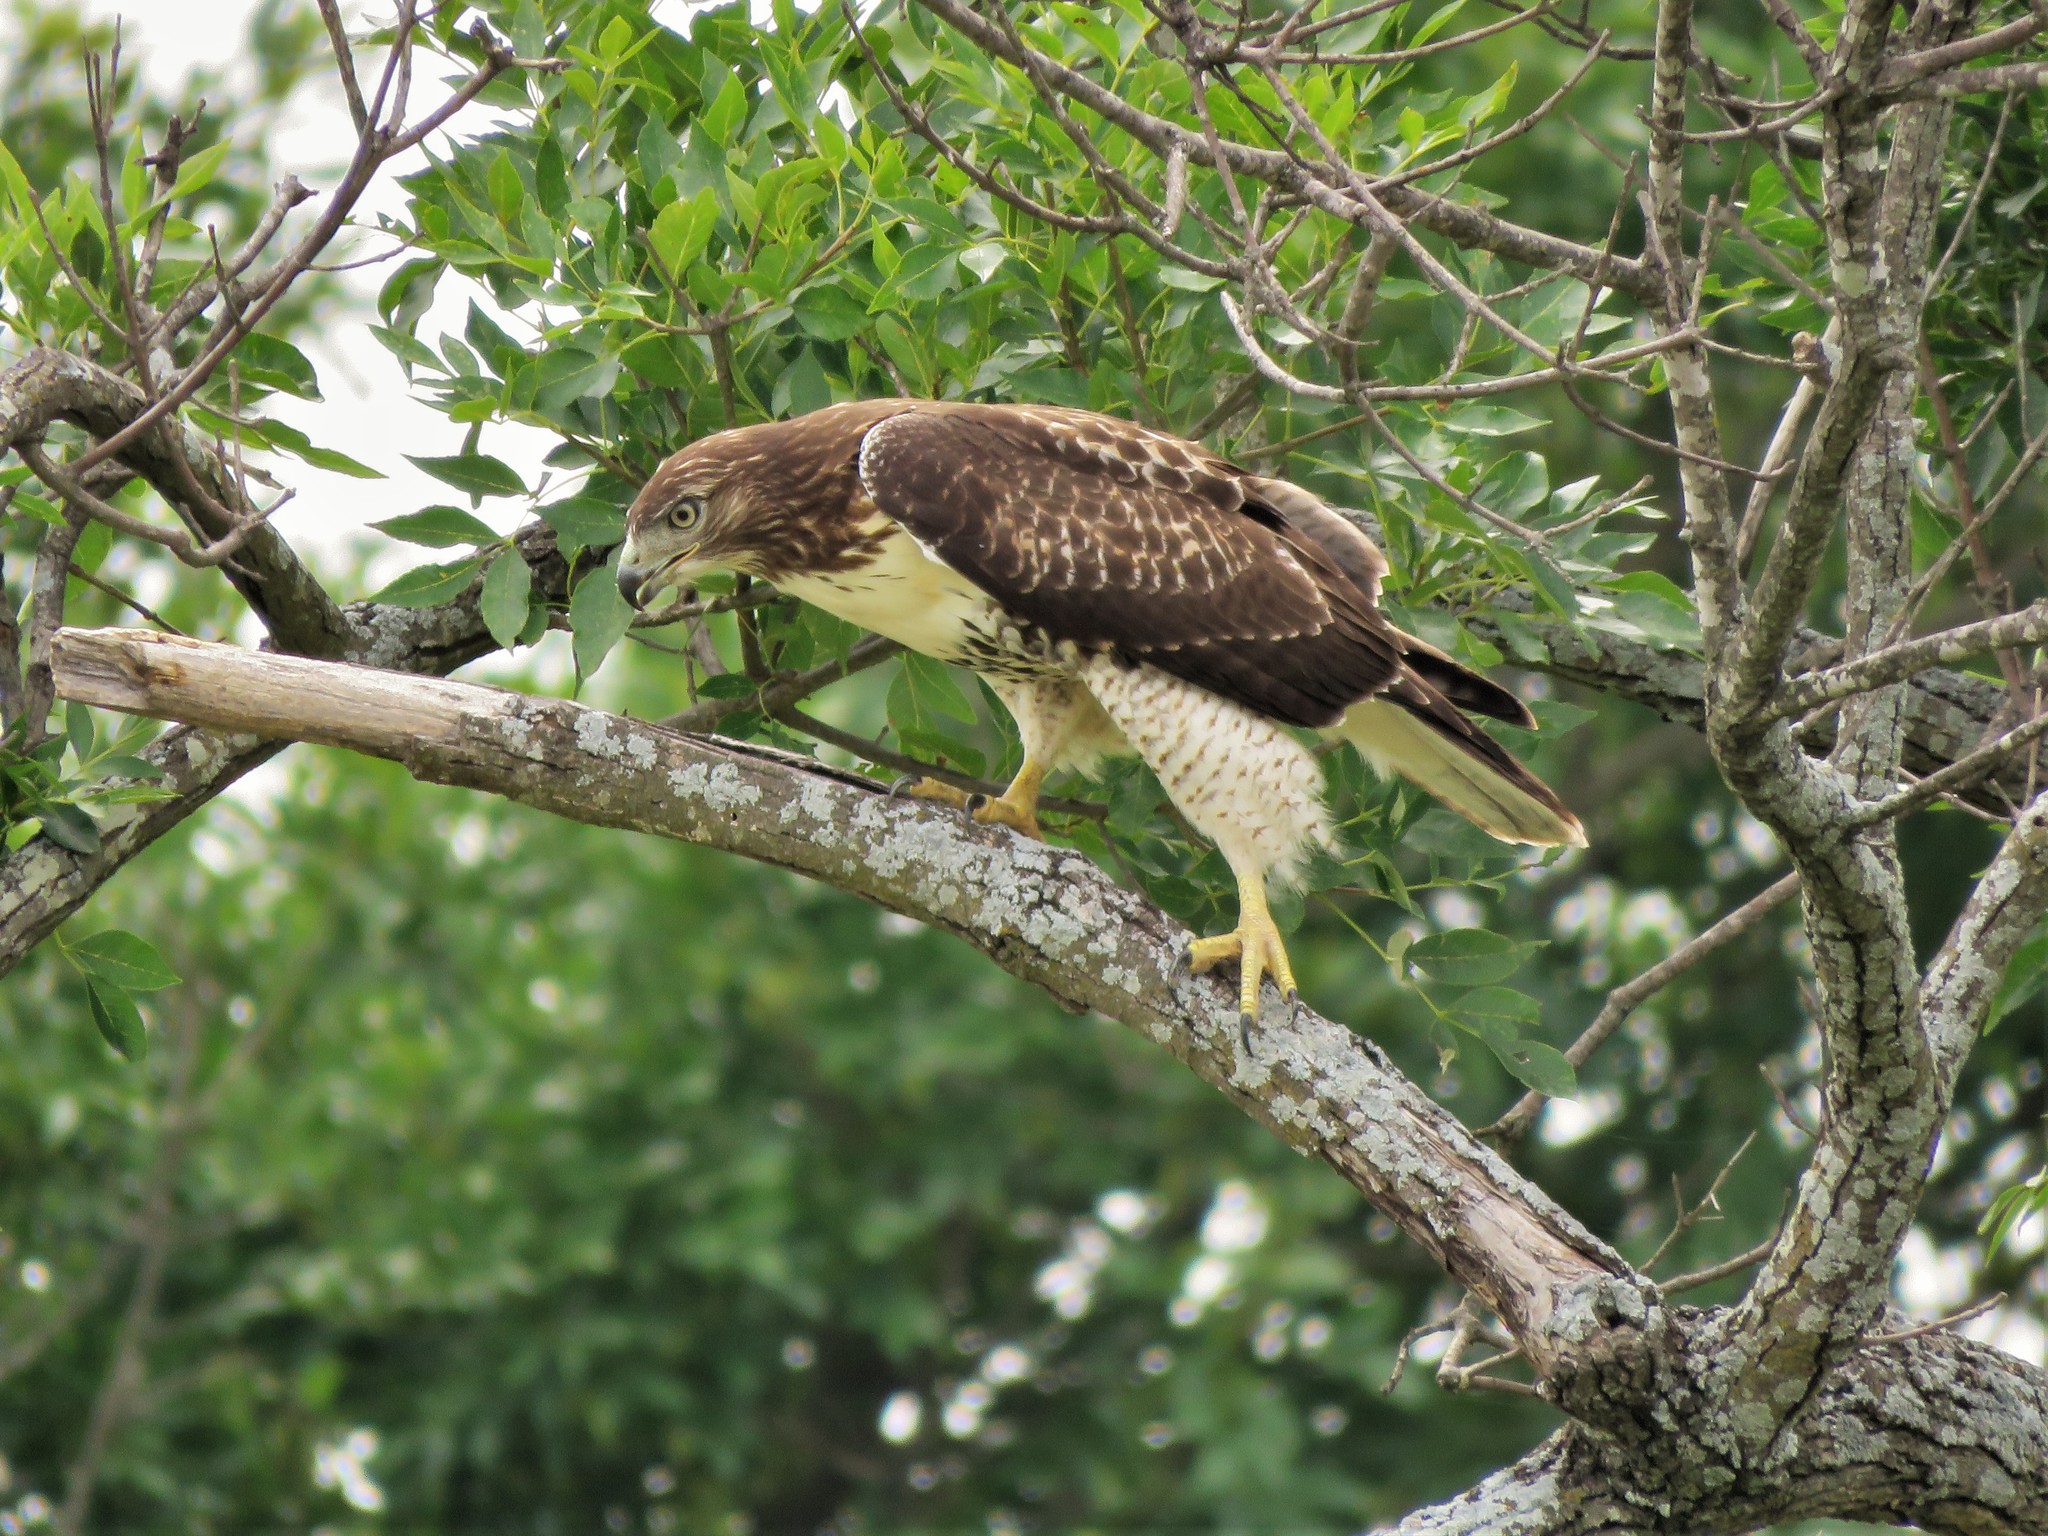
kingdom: Animalia
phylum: Chordata
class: Aves
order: Accipitriformes
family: Accipitridae
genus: Buteo
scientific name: Buteo jamaicensis
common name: Red-tailed hawk
